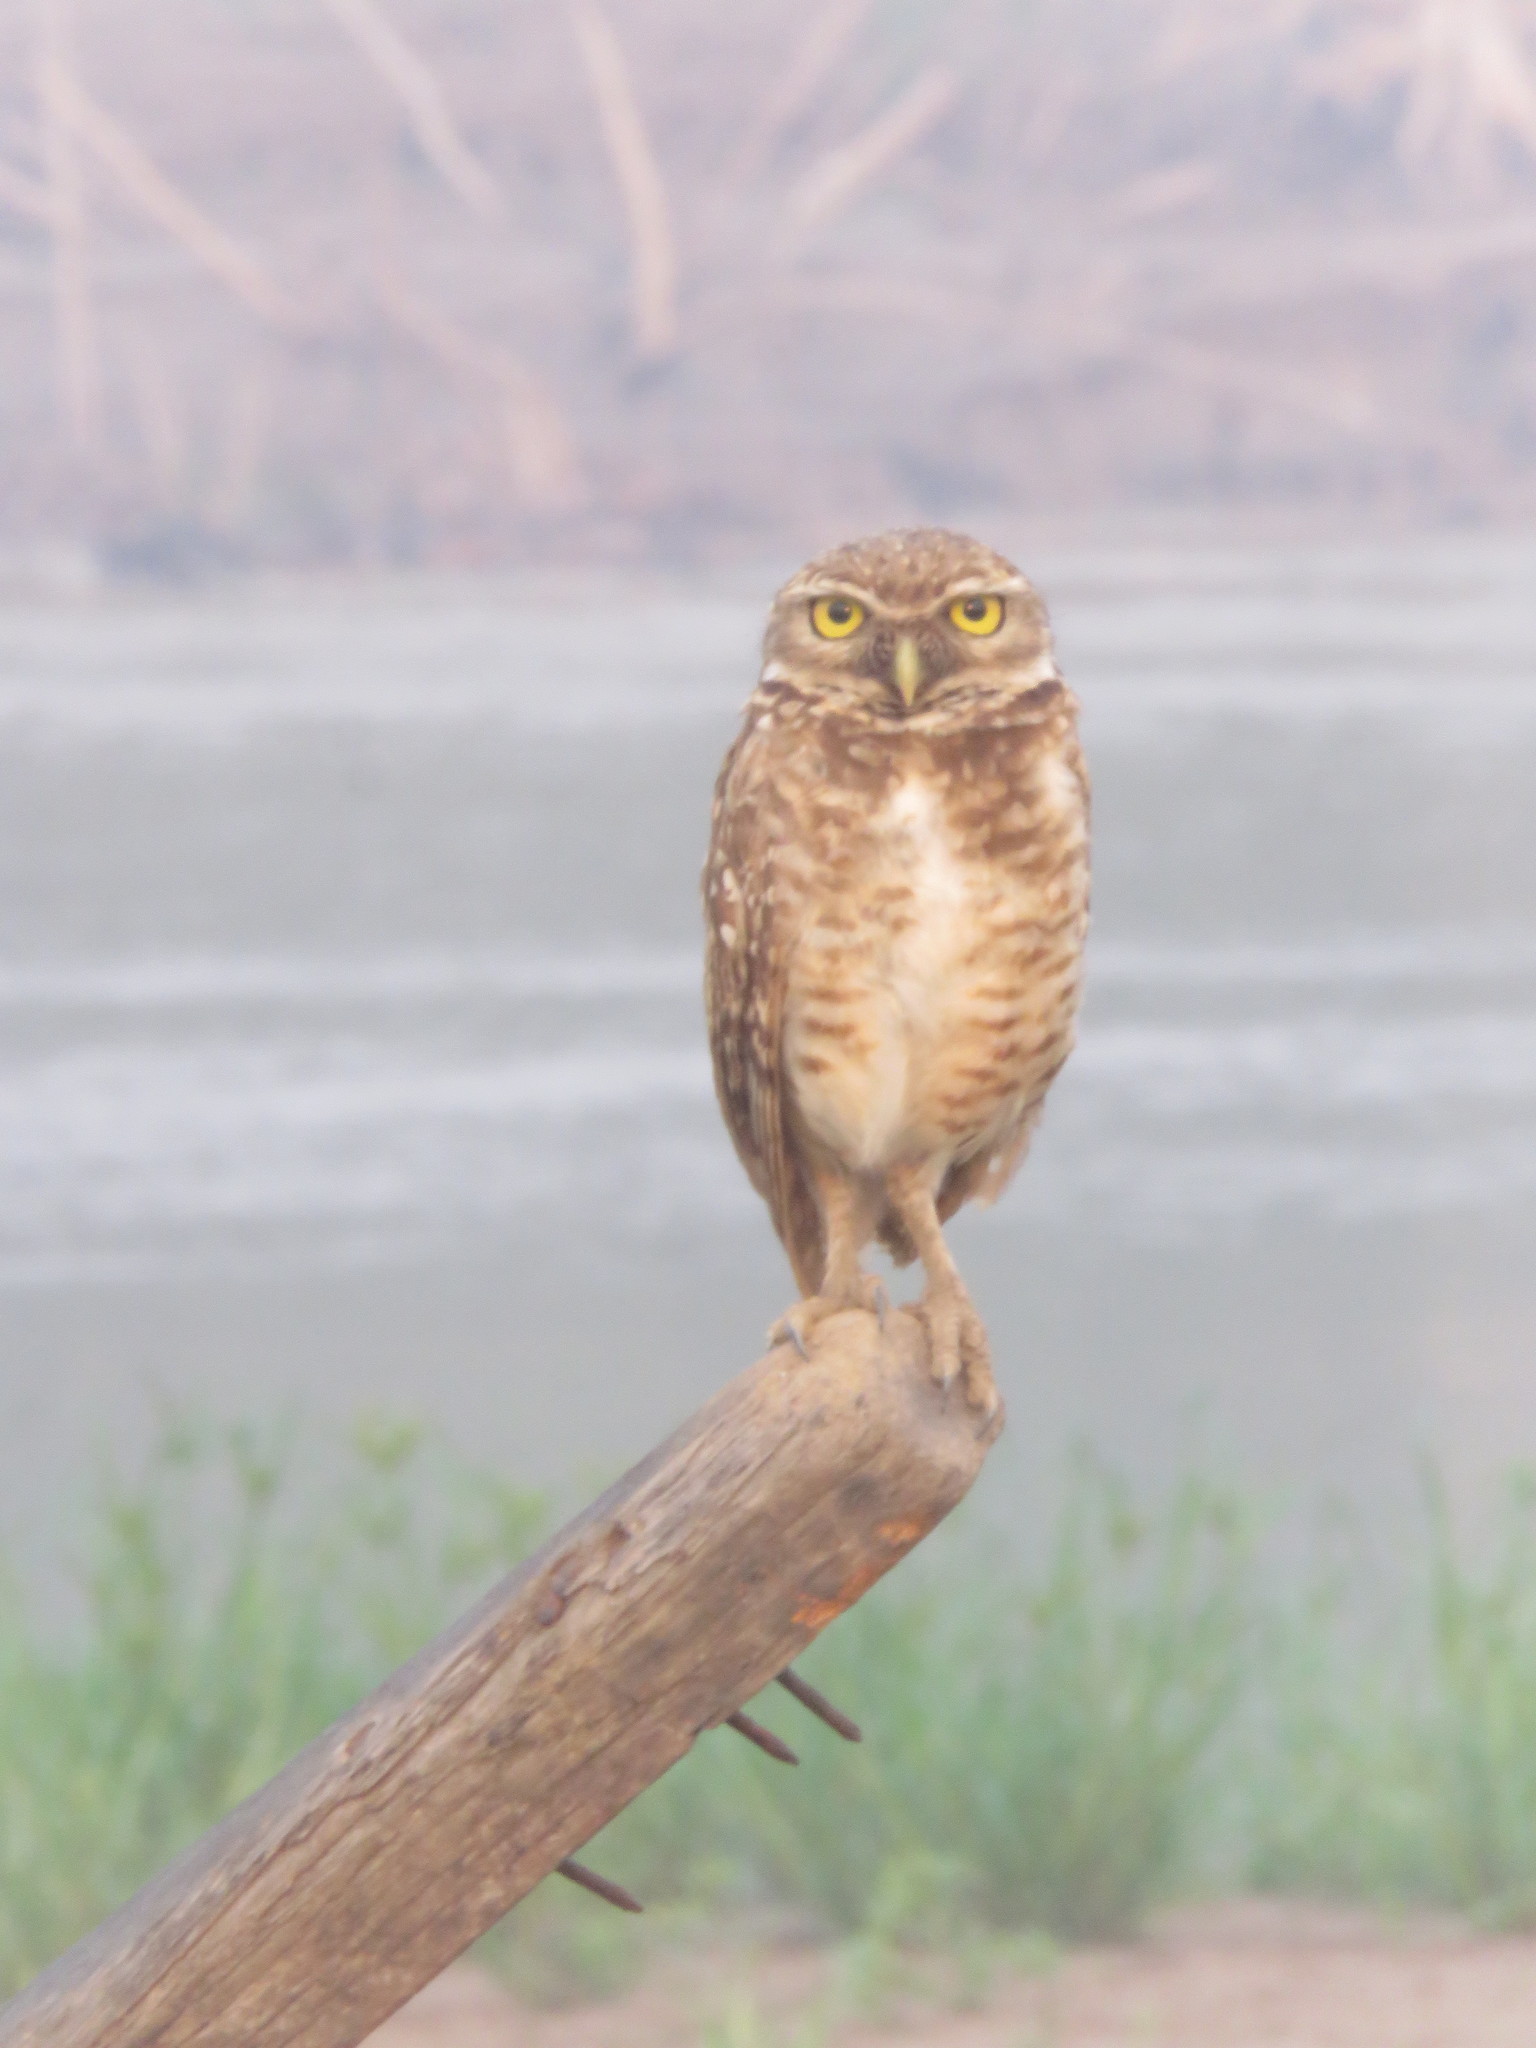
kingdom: Animalia
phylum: Chordata
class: Aves
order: Strigiformes
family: Strigidae
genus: Athene
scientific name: Athene cunicularia
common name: Burrowing owl
